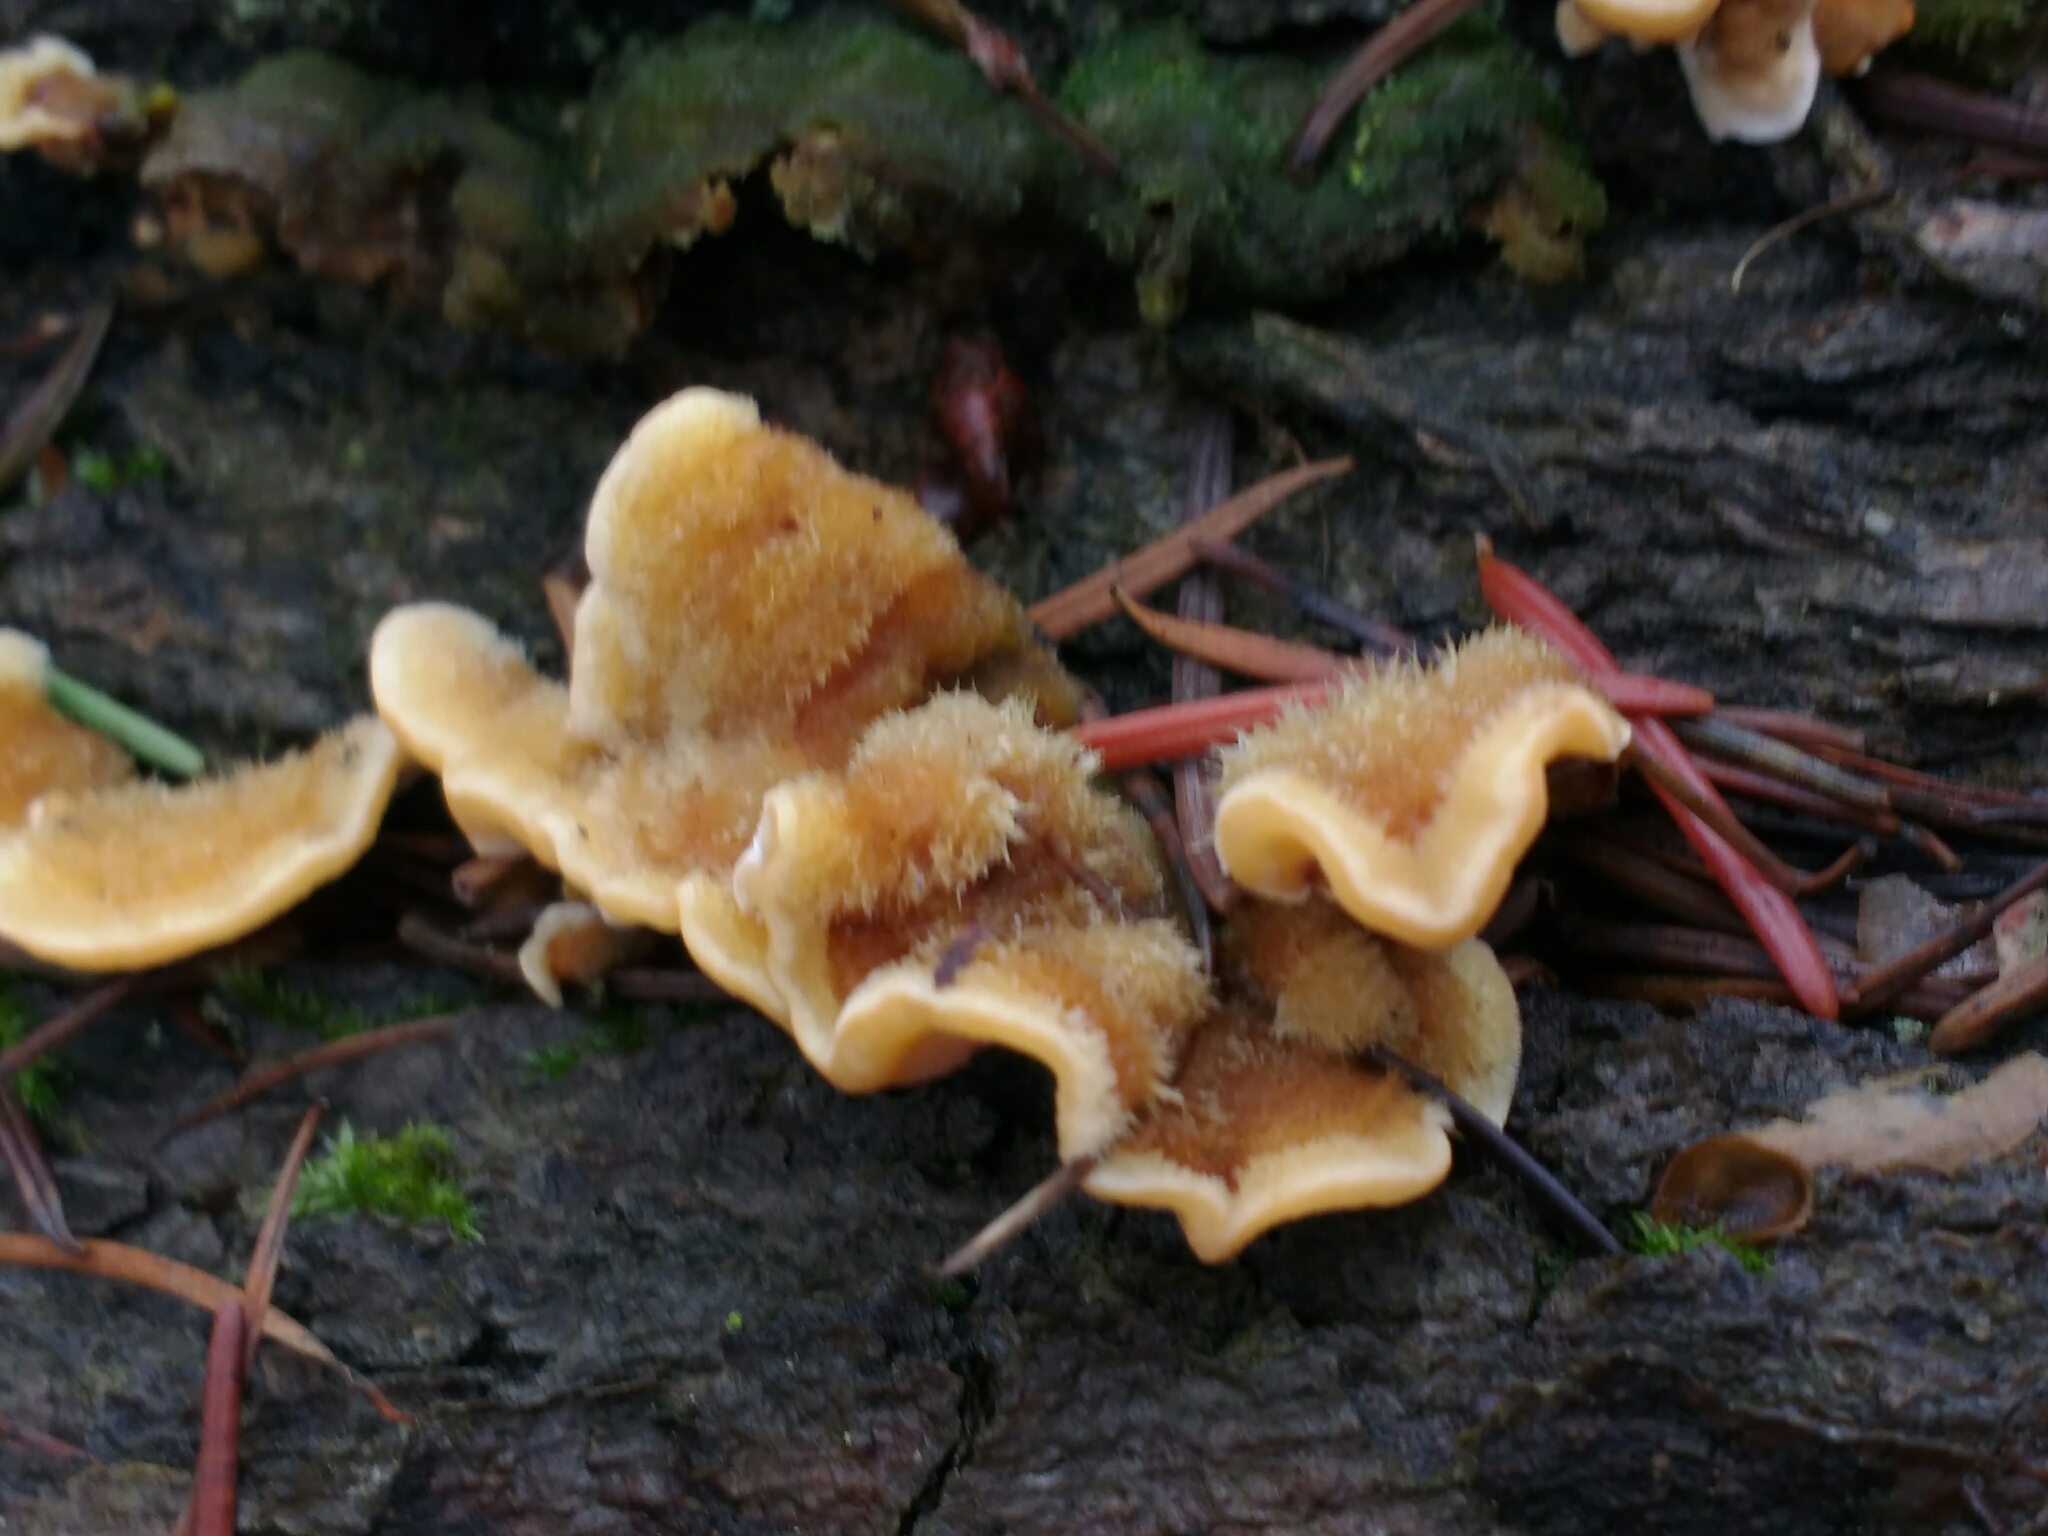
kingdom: Fungi
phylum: Basidiomycota
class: Agaricomycetes
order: Russulales
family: Stereaceae
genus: Stereum
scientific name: Stereum hirsutum
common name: Hairy curtain crust
